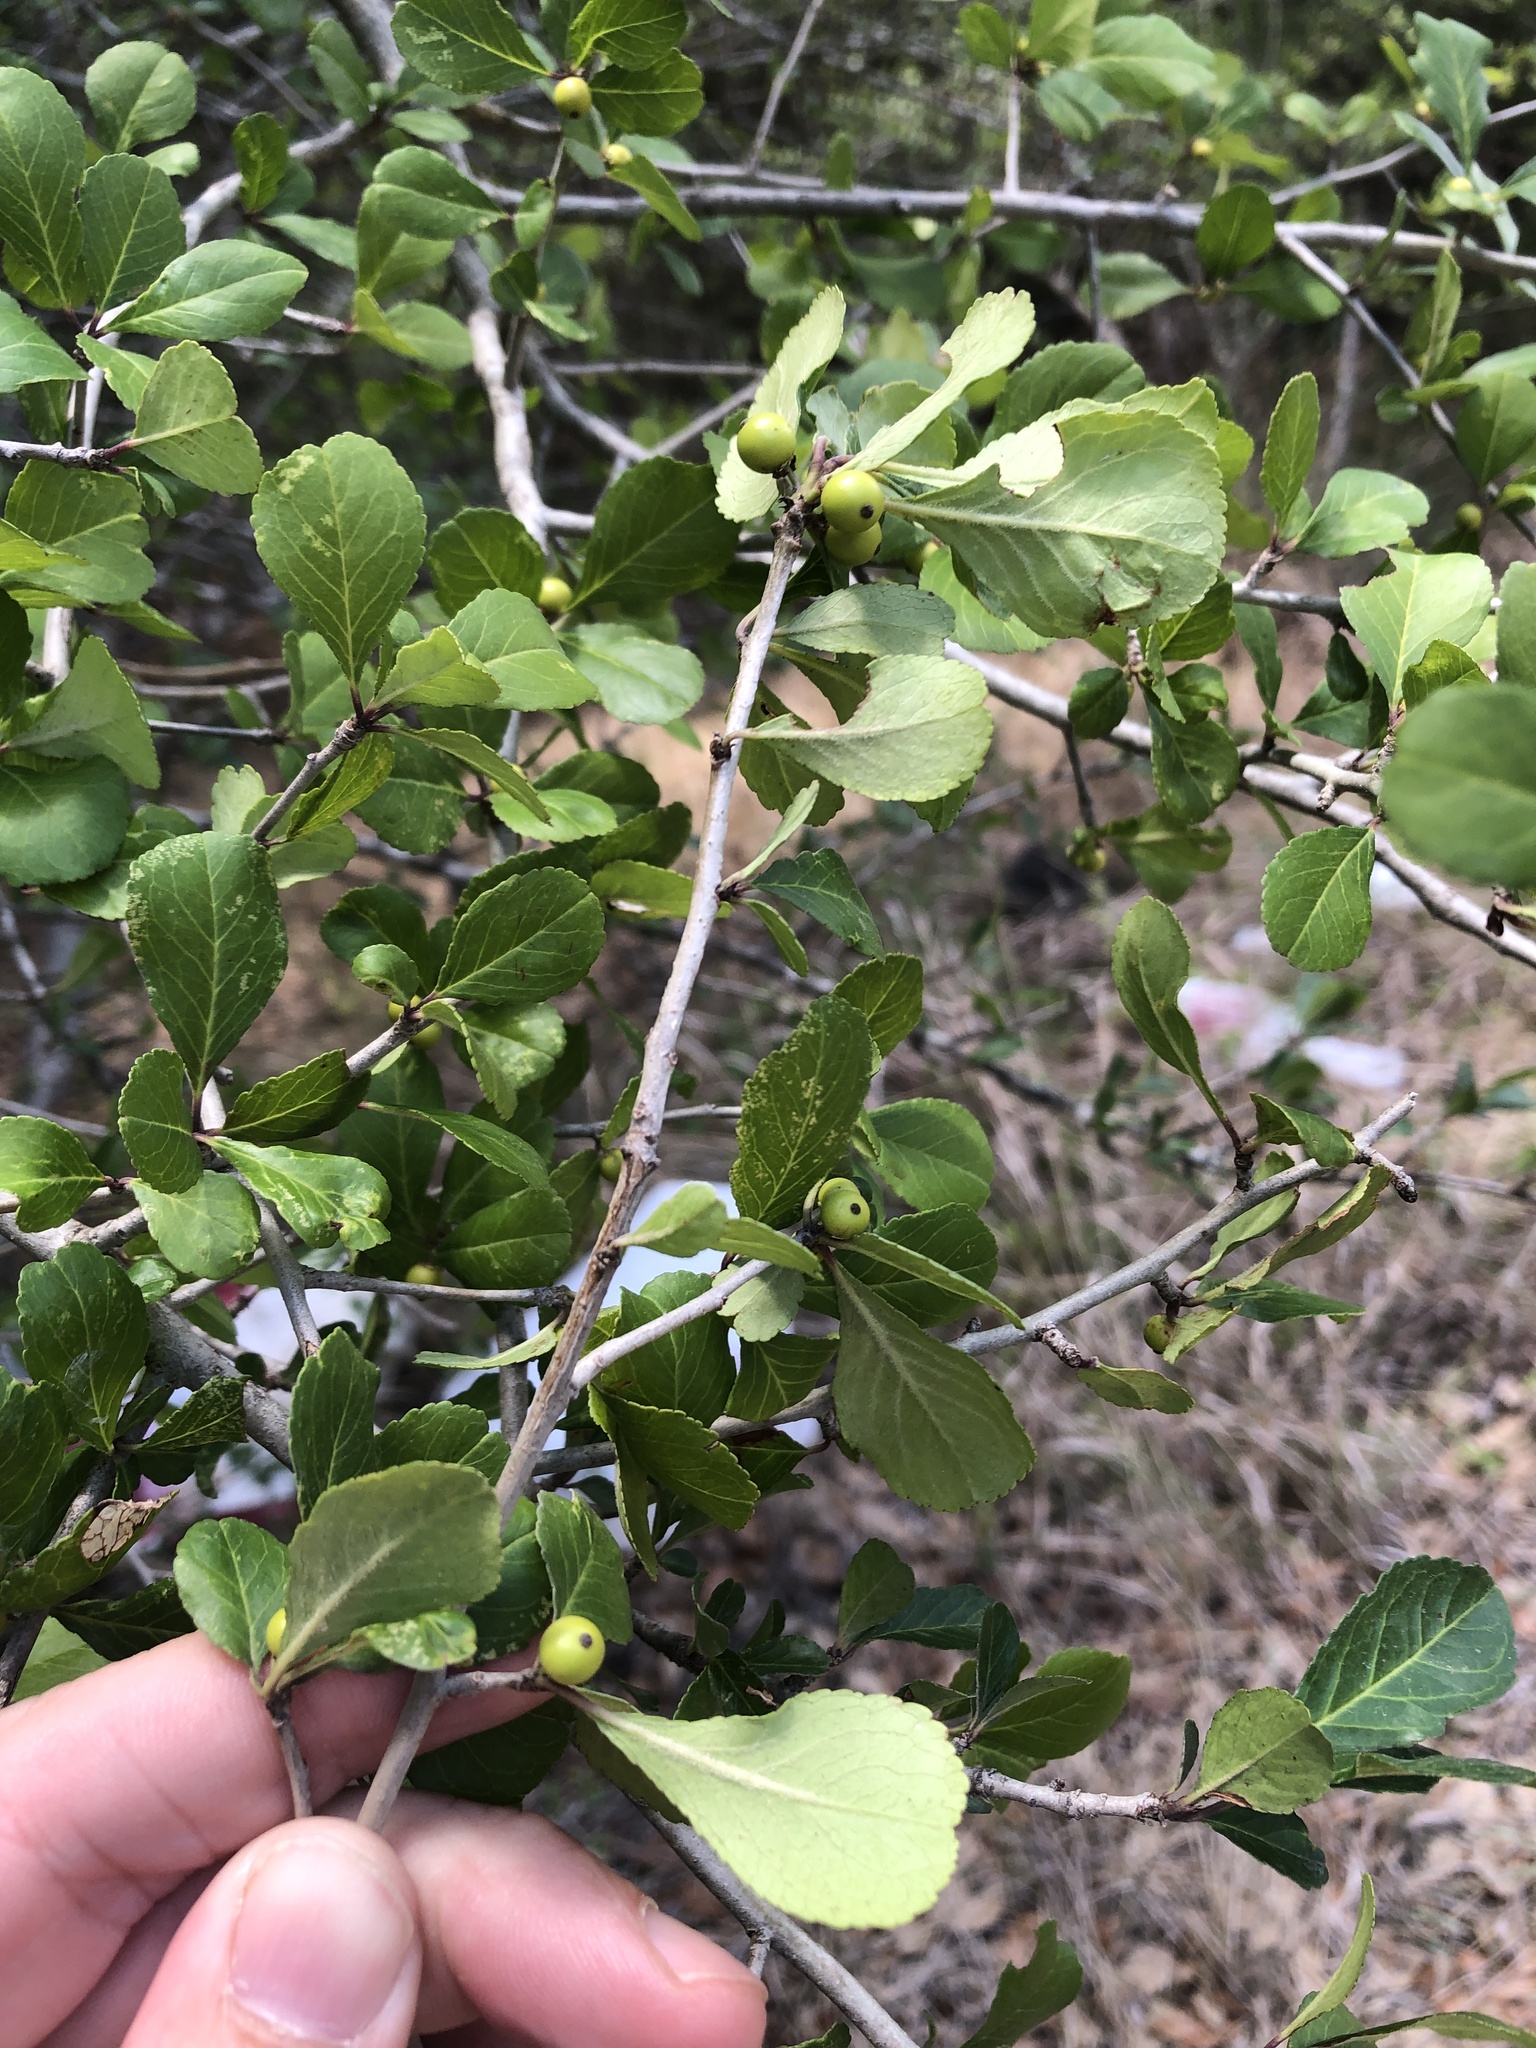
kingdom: Plantae
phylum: Tracheophyta
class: Magnoliopsida
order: Aquifoliales
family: Aquifoliaceae
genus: Ilex
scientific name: Ilex decidua
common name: Possum-haw
